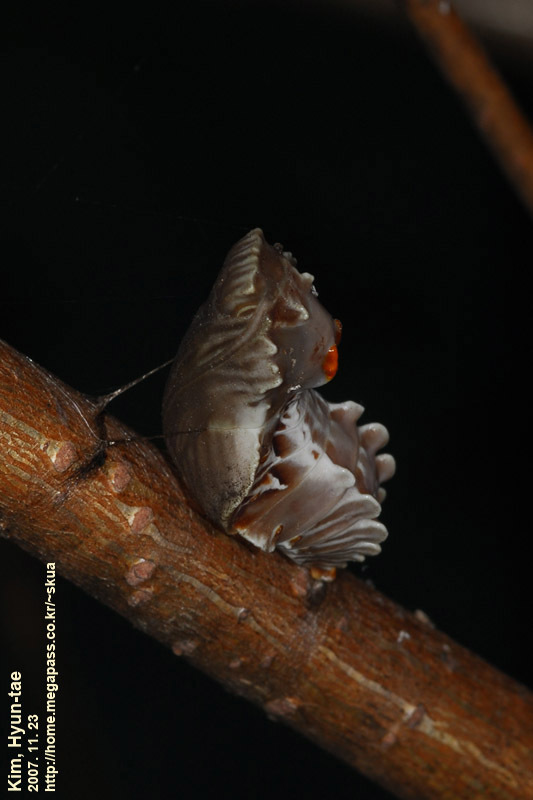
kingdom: Animalia
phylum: Arthropoda
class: Insecta
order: Lepidoptera
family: Papilionidae
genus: Byasa
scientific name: Byasa alcinous
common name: Chinese windmill
